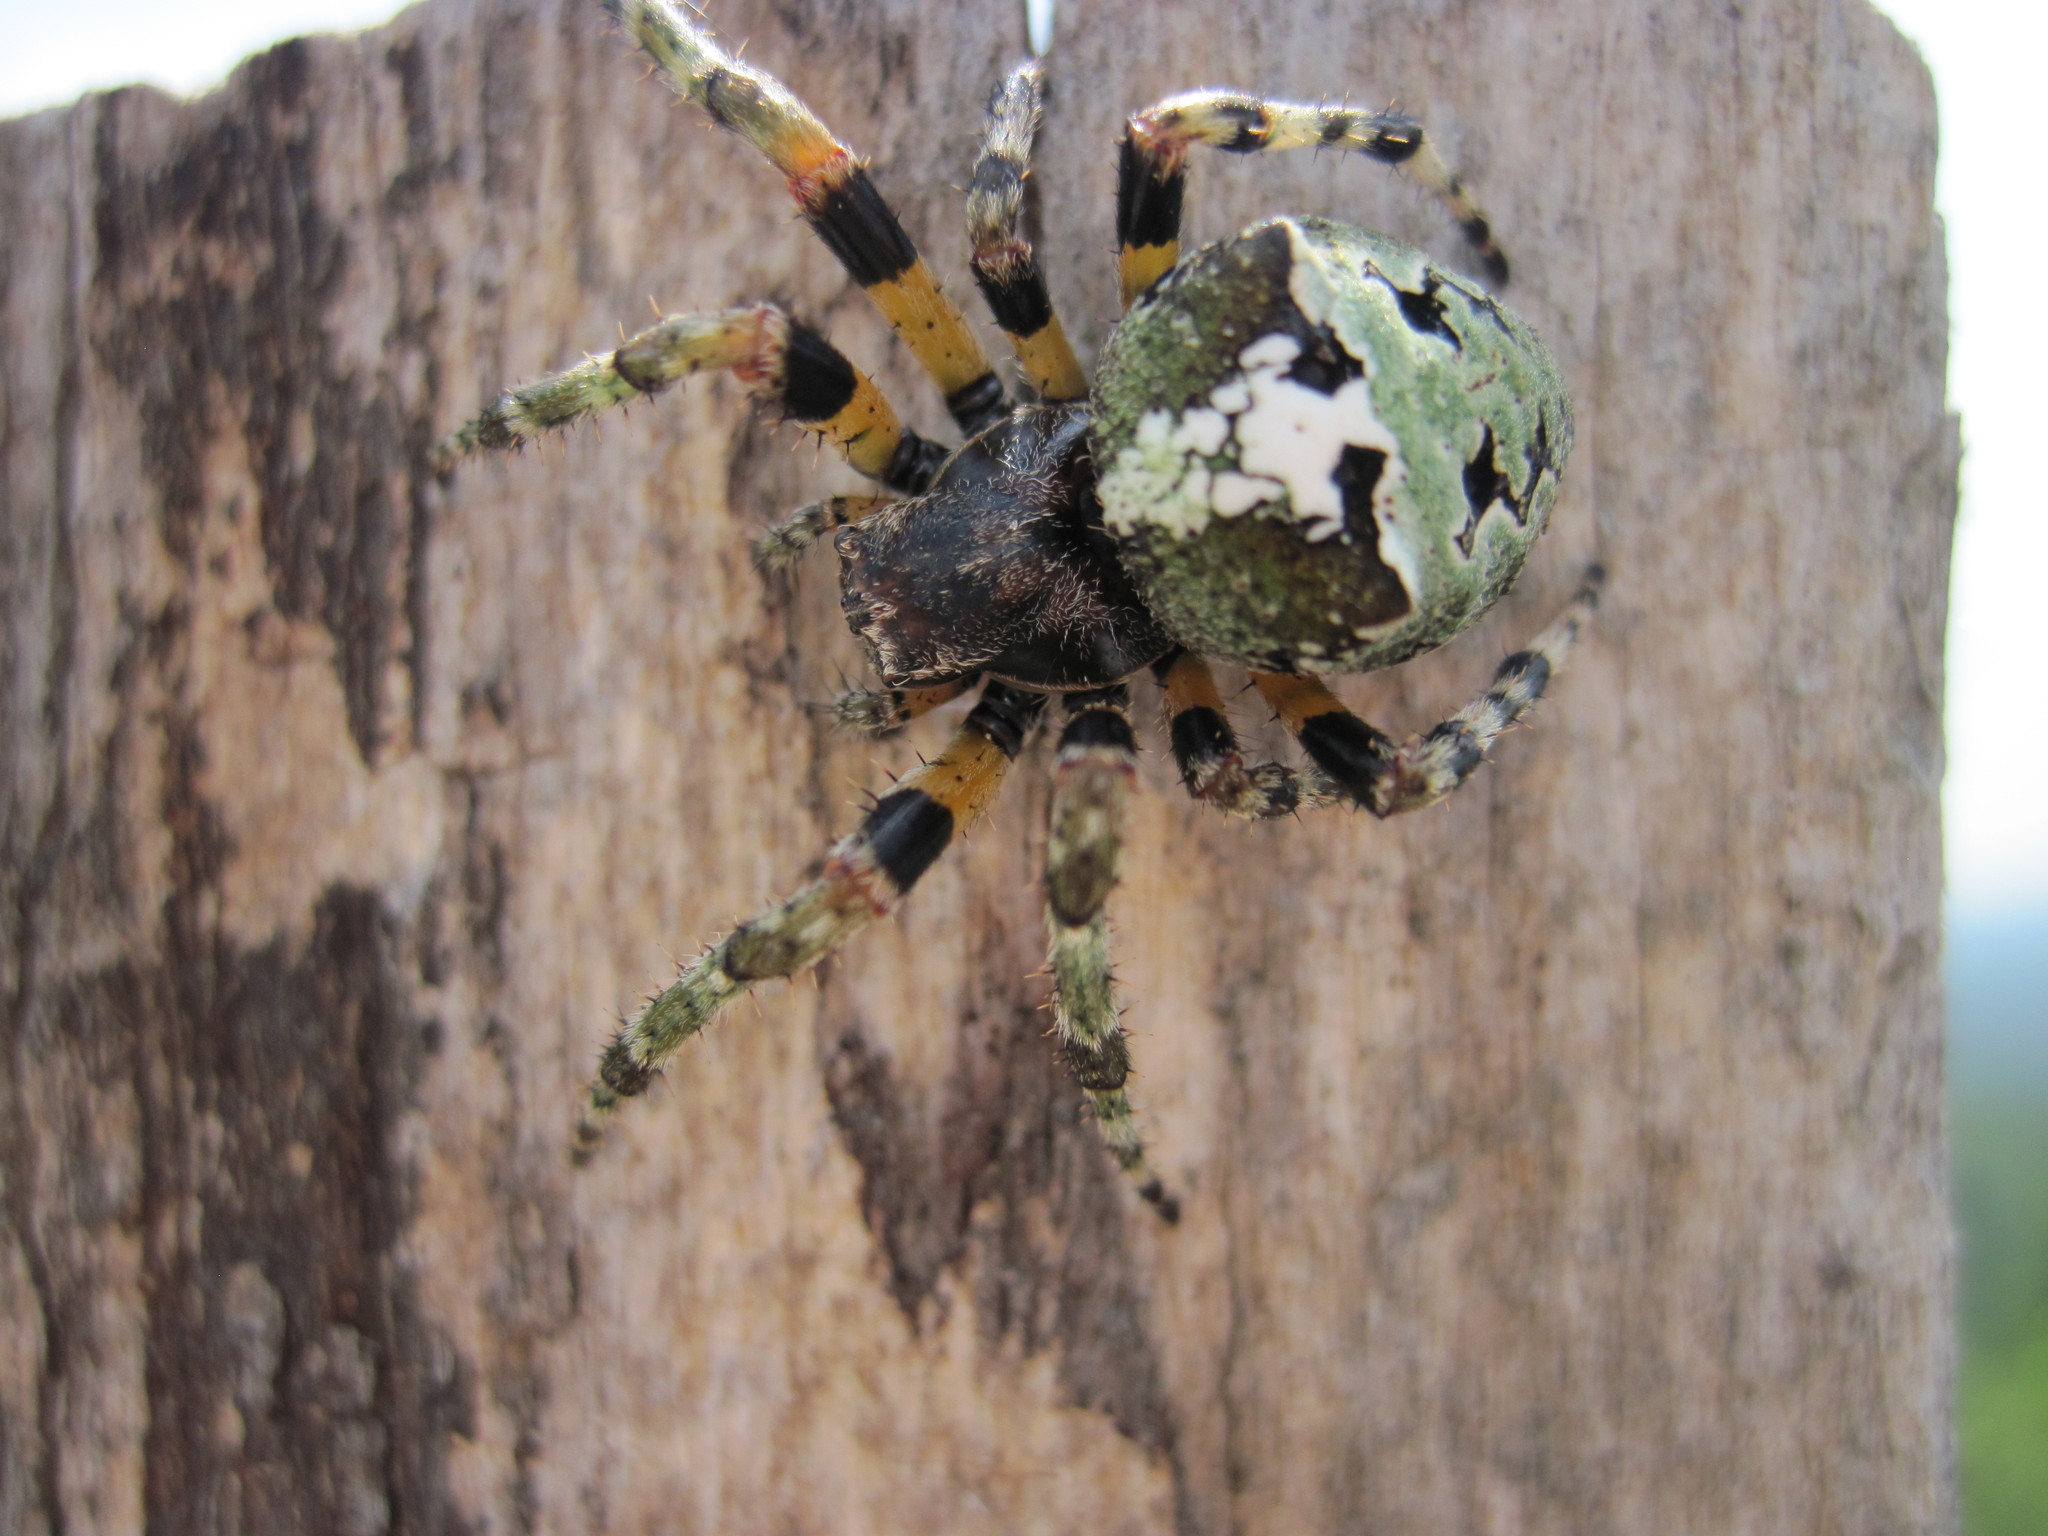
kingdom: Animalia
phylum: Arthropoda
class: Arachnida
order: Araneae
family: Araneidae
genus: Araneus
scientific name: Araneus bicentenarius
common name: Giant lichen orbweaver
